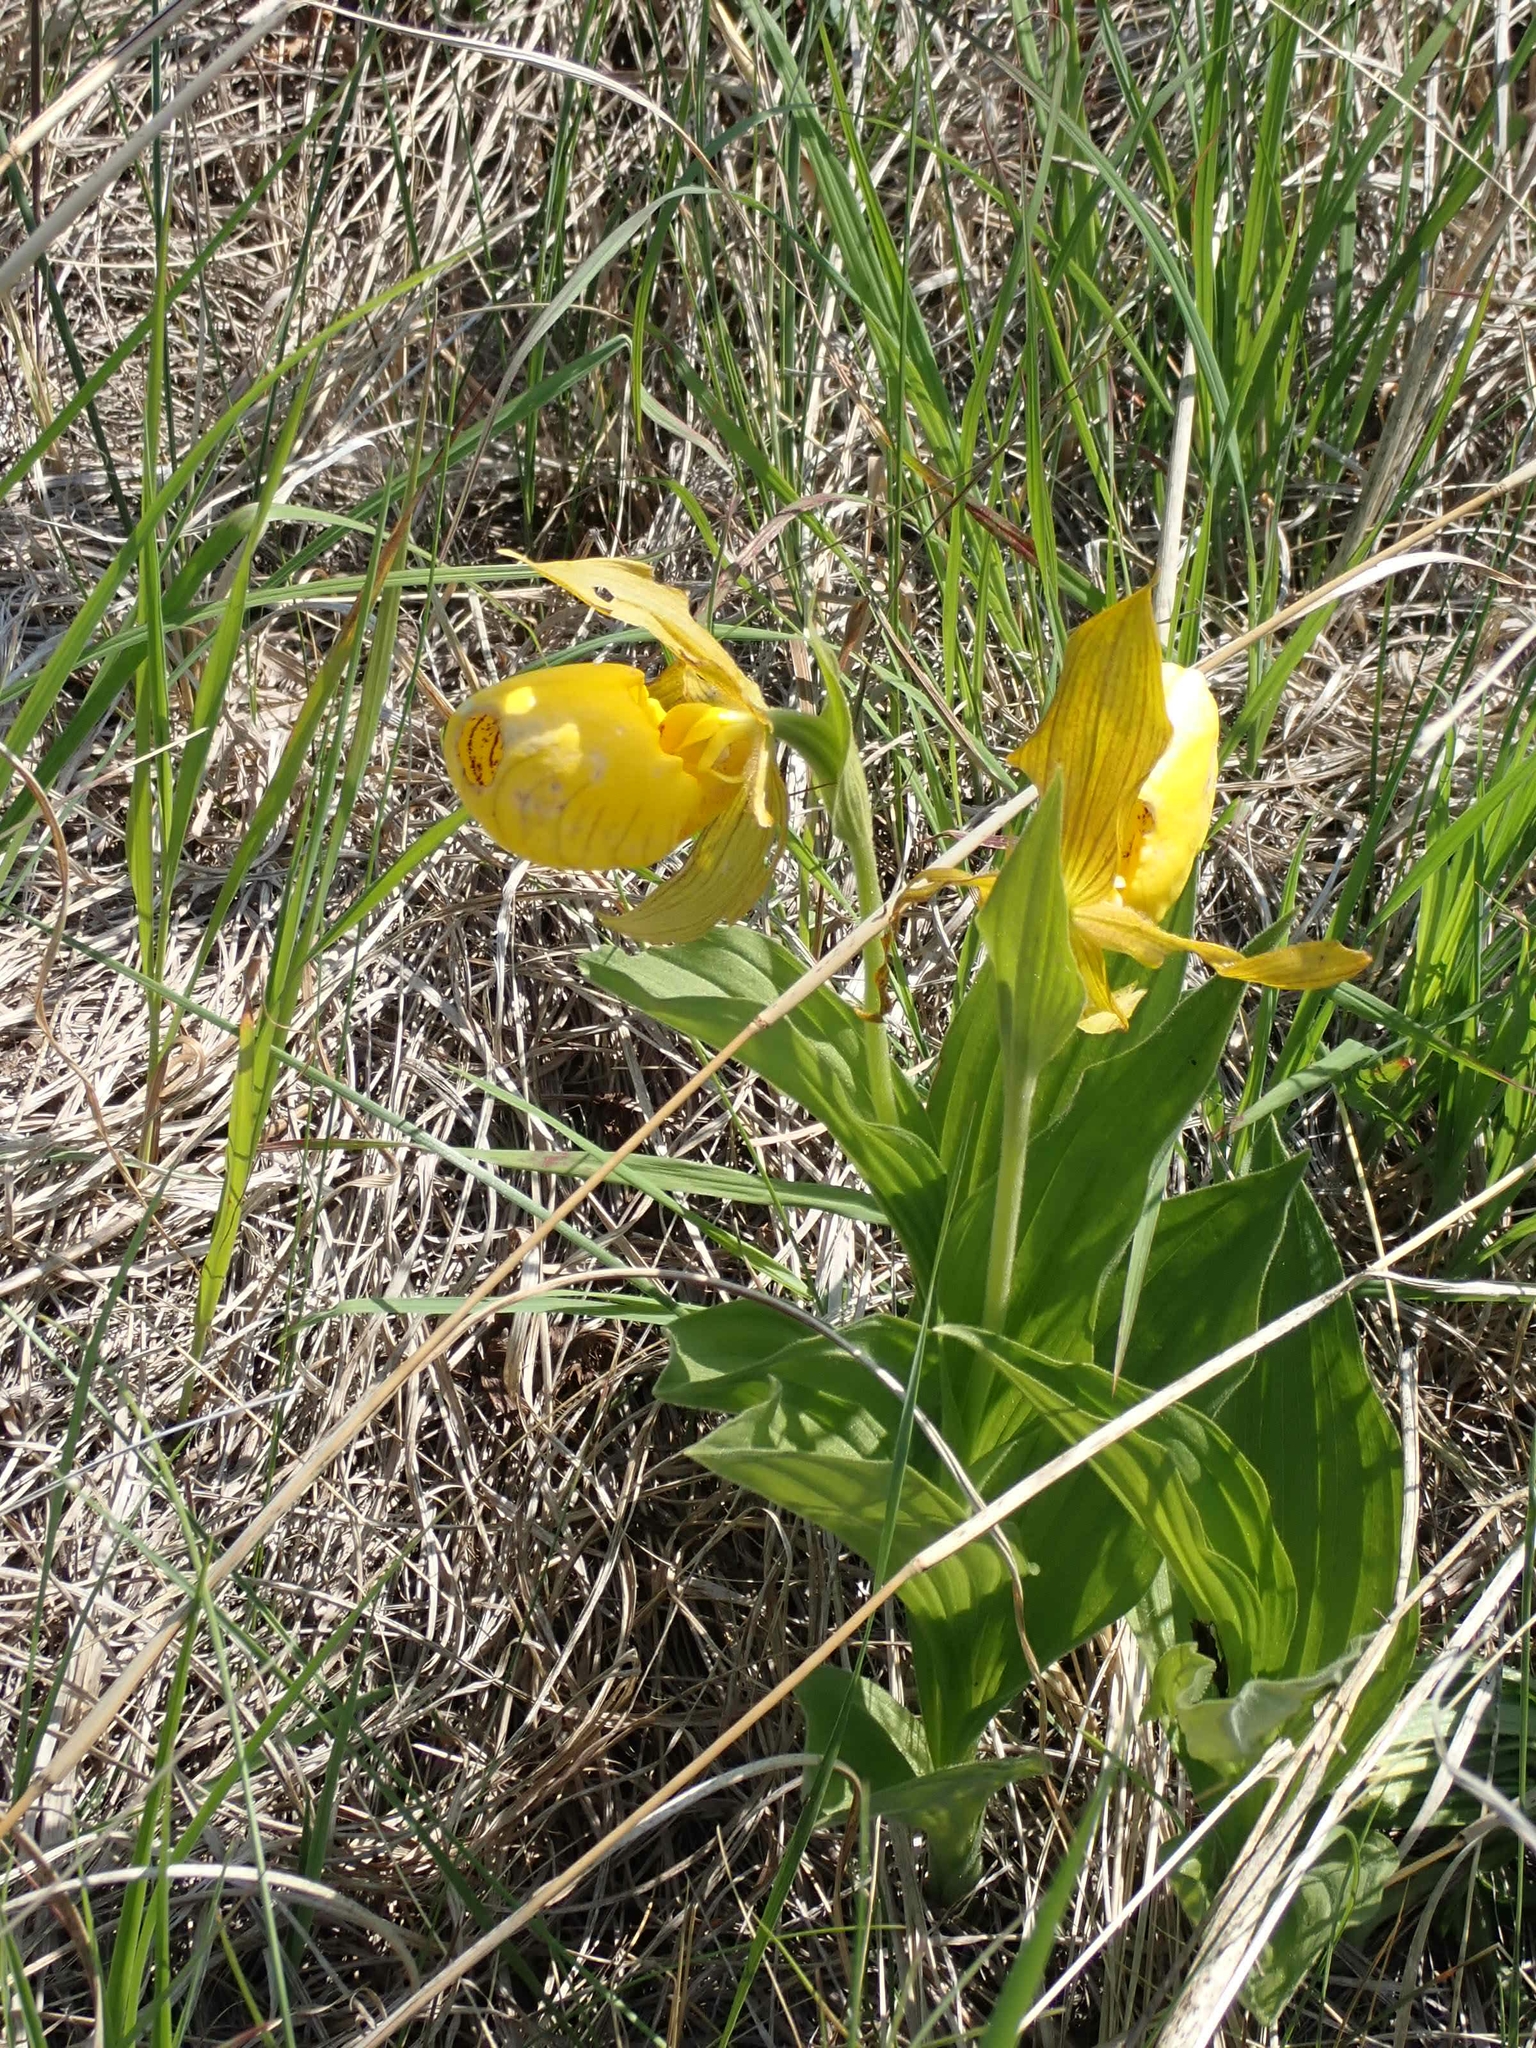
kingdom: Plantae
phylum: Tracheophyta
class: Liliopsida
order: Asparagales
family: Orchidaceae
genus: Cypripedium
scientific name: Cypripedium parviflorum
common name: American yellow lady's-slipper
